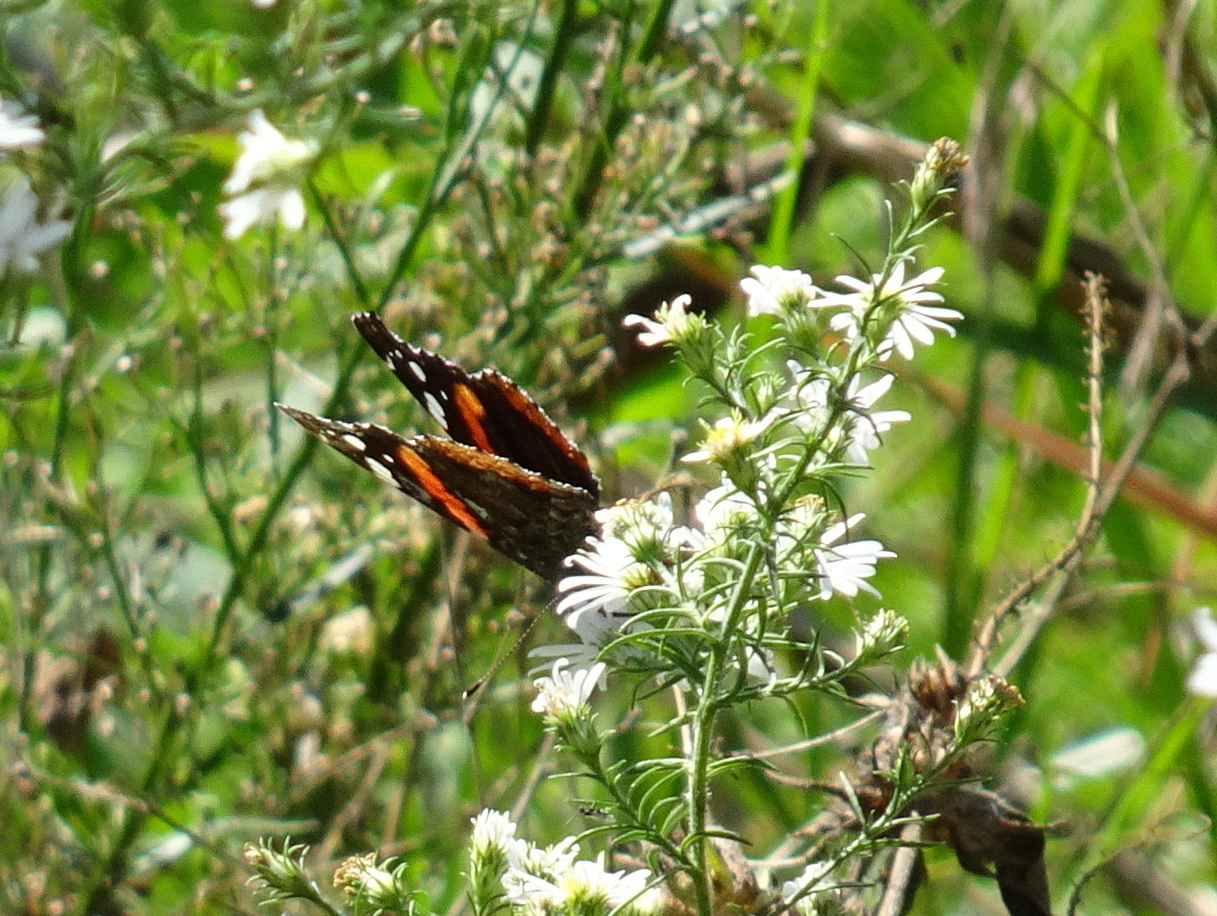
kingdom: Animalia
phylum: Arthropoda
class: Insecta
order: Lepidoptera
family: Nymphalidae
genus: Vanessa
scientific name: Vanessa atalanta
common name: Red admiral
